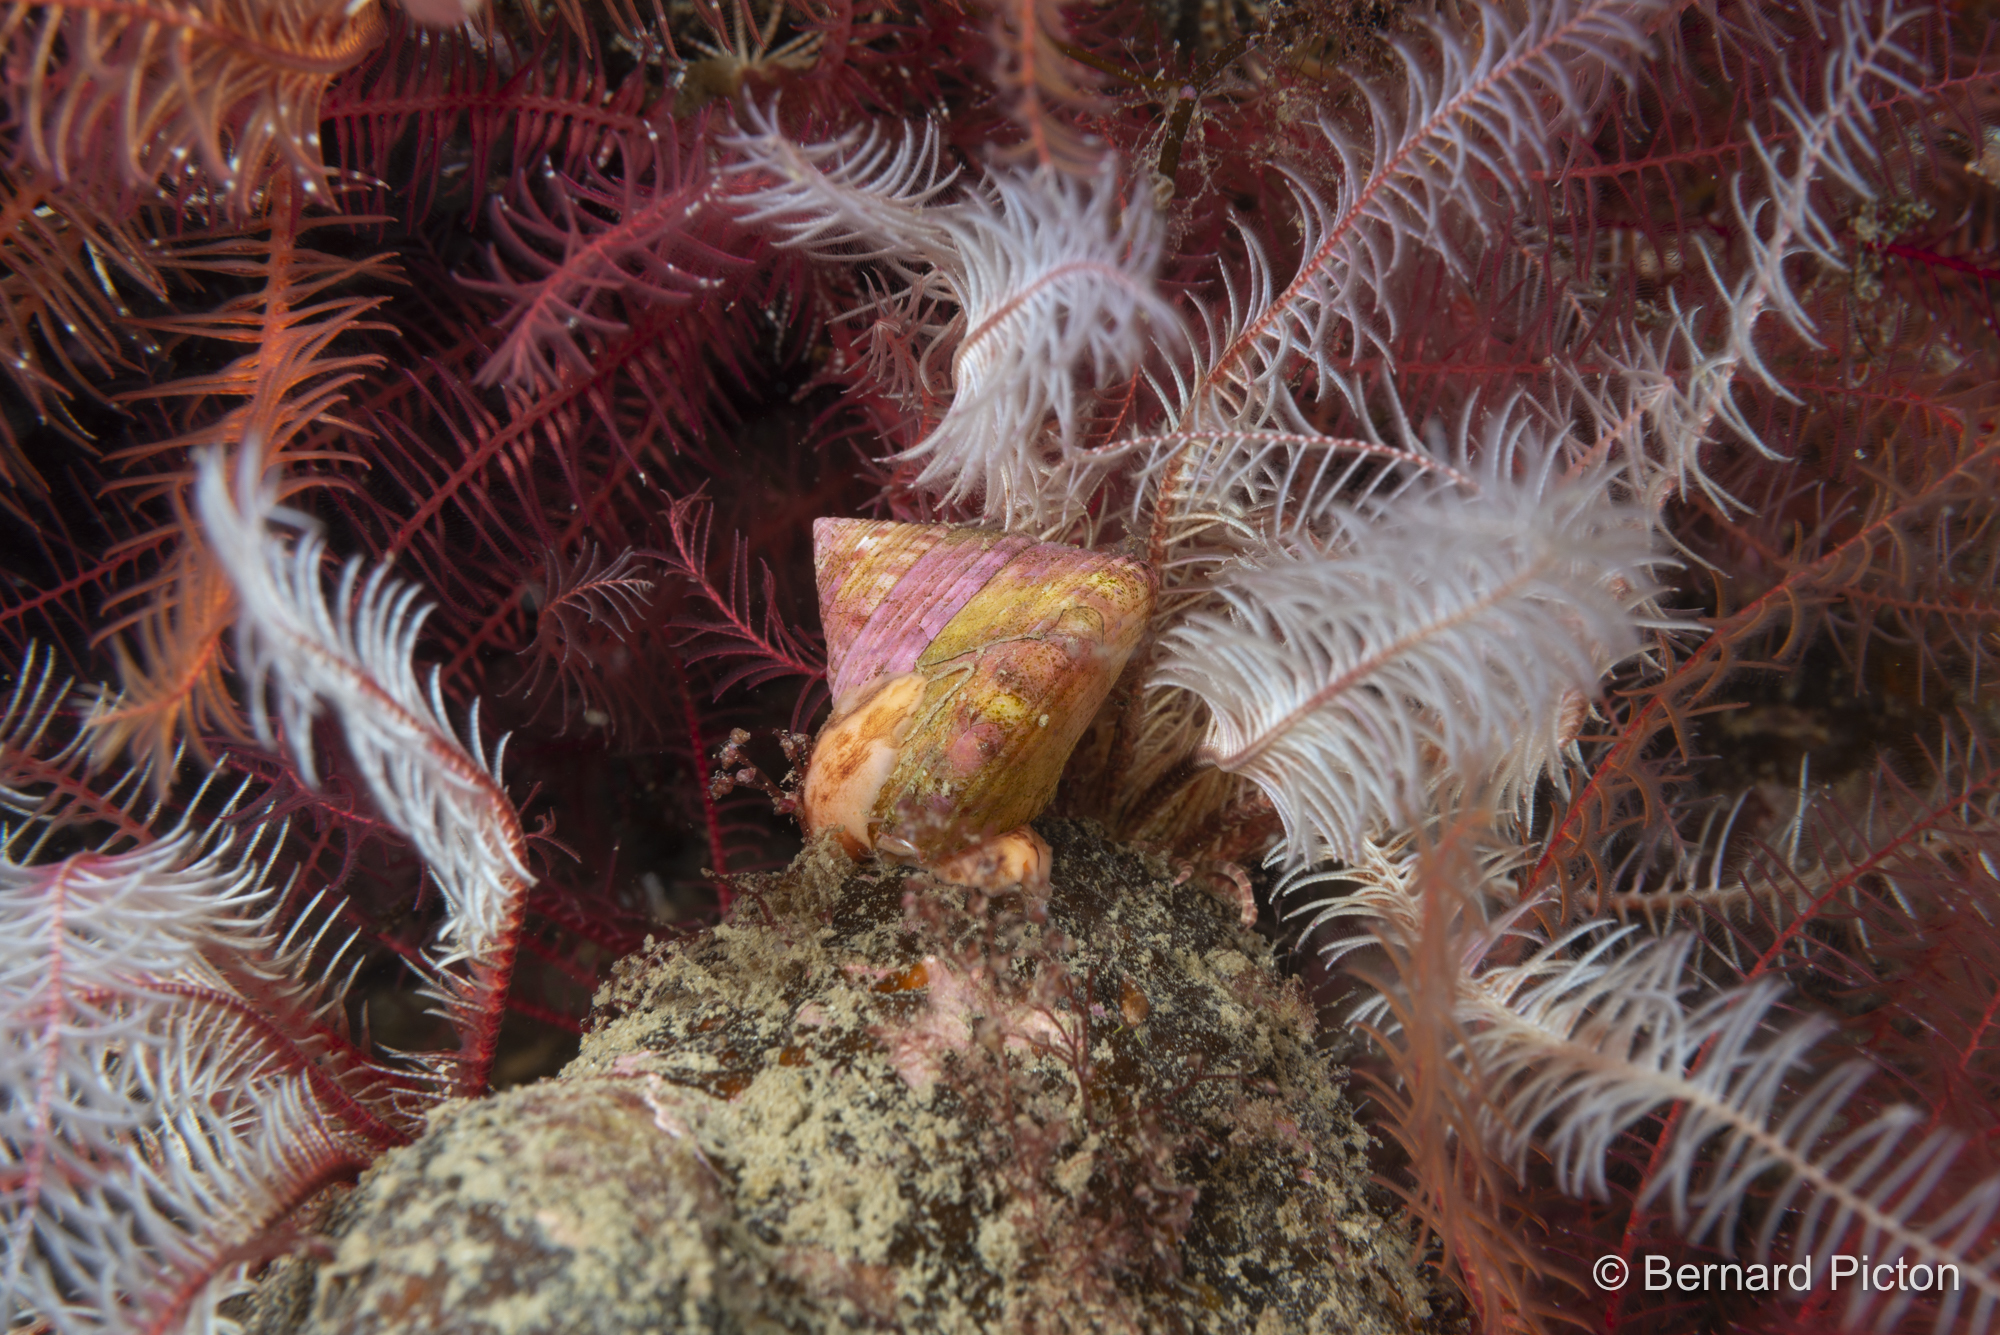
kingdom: Animalia
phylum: Mollusca
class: Gastropoda
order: Trochida
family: Calliostomatidae
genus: Calliostoma
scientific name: Calliostoma zizyphinum
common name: Painted top shell
